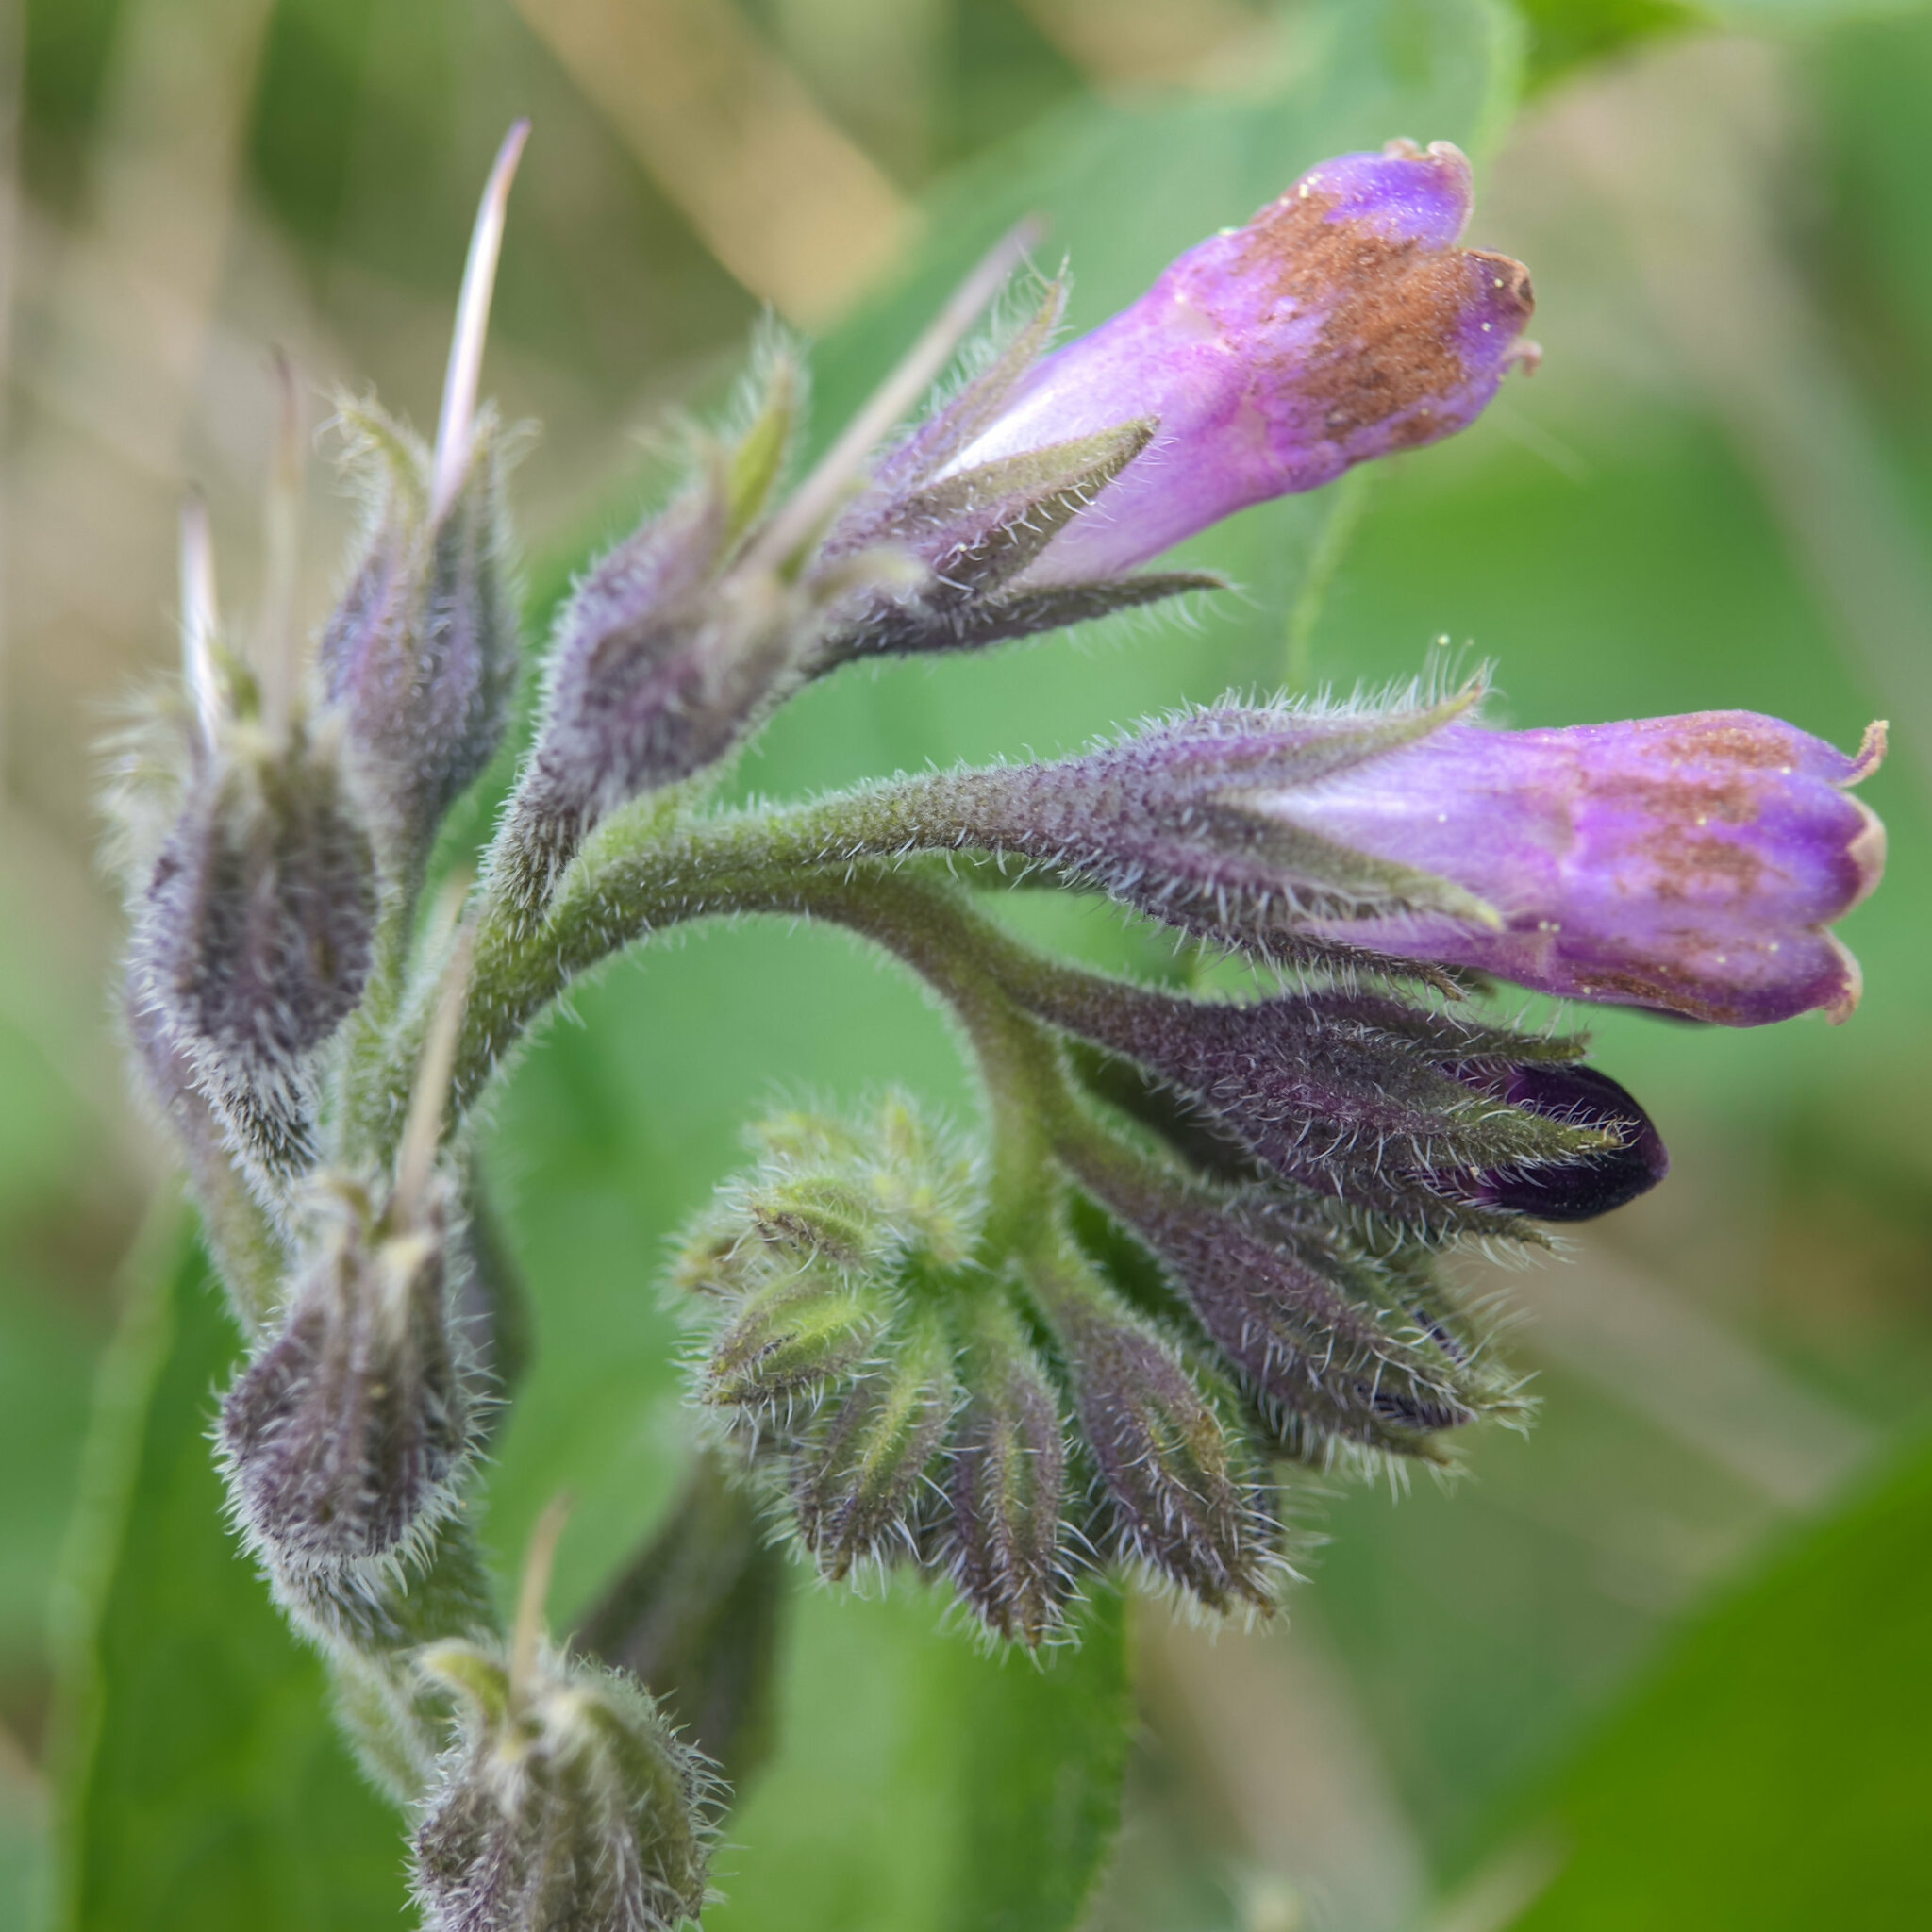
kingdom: Plantae
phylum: Tracheophyta
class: Magnoliopsida
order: Boraginales
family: Boraginaceae
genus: Symphytum
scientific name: Symphytum officinale
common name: Common comfrey
